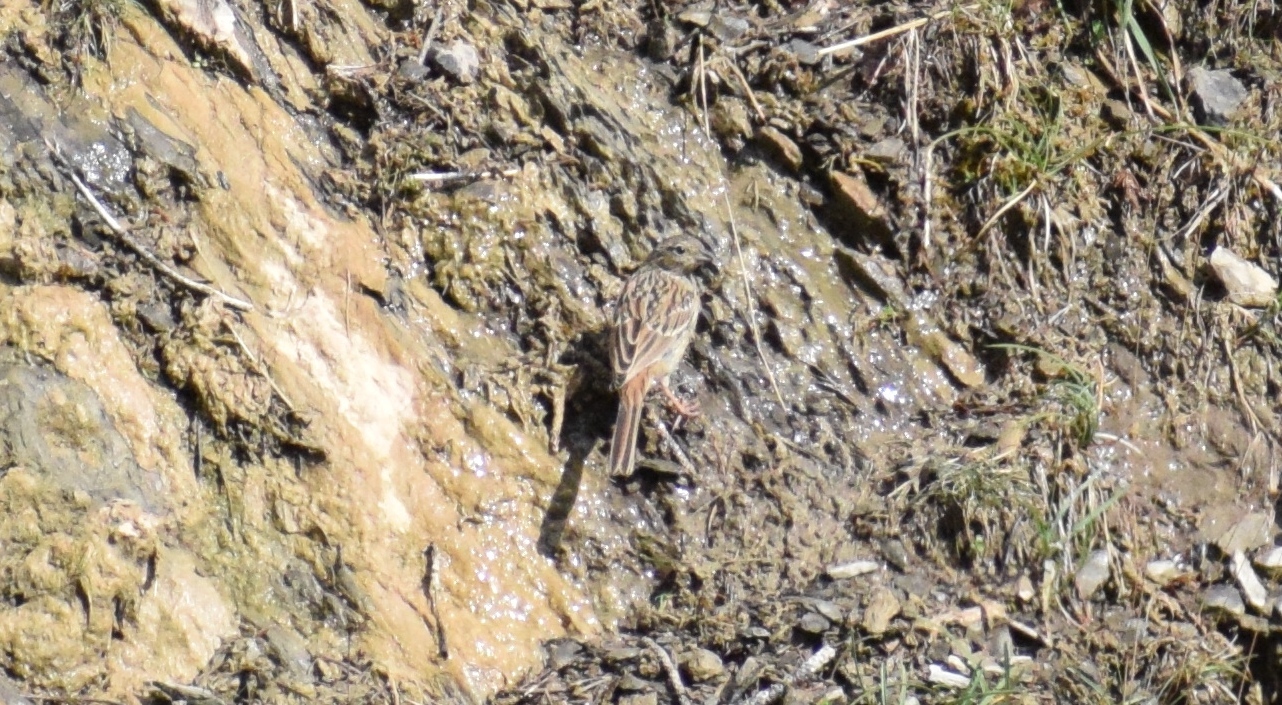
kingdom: Animalia
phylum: Chordata
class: Aves
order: Passeriformes
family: Emberizidae
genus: Emberiza
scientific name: Emberiza cia
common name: Rock bunting
